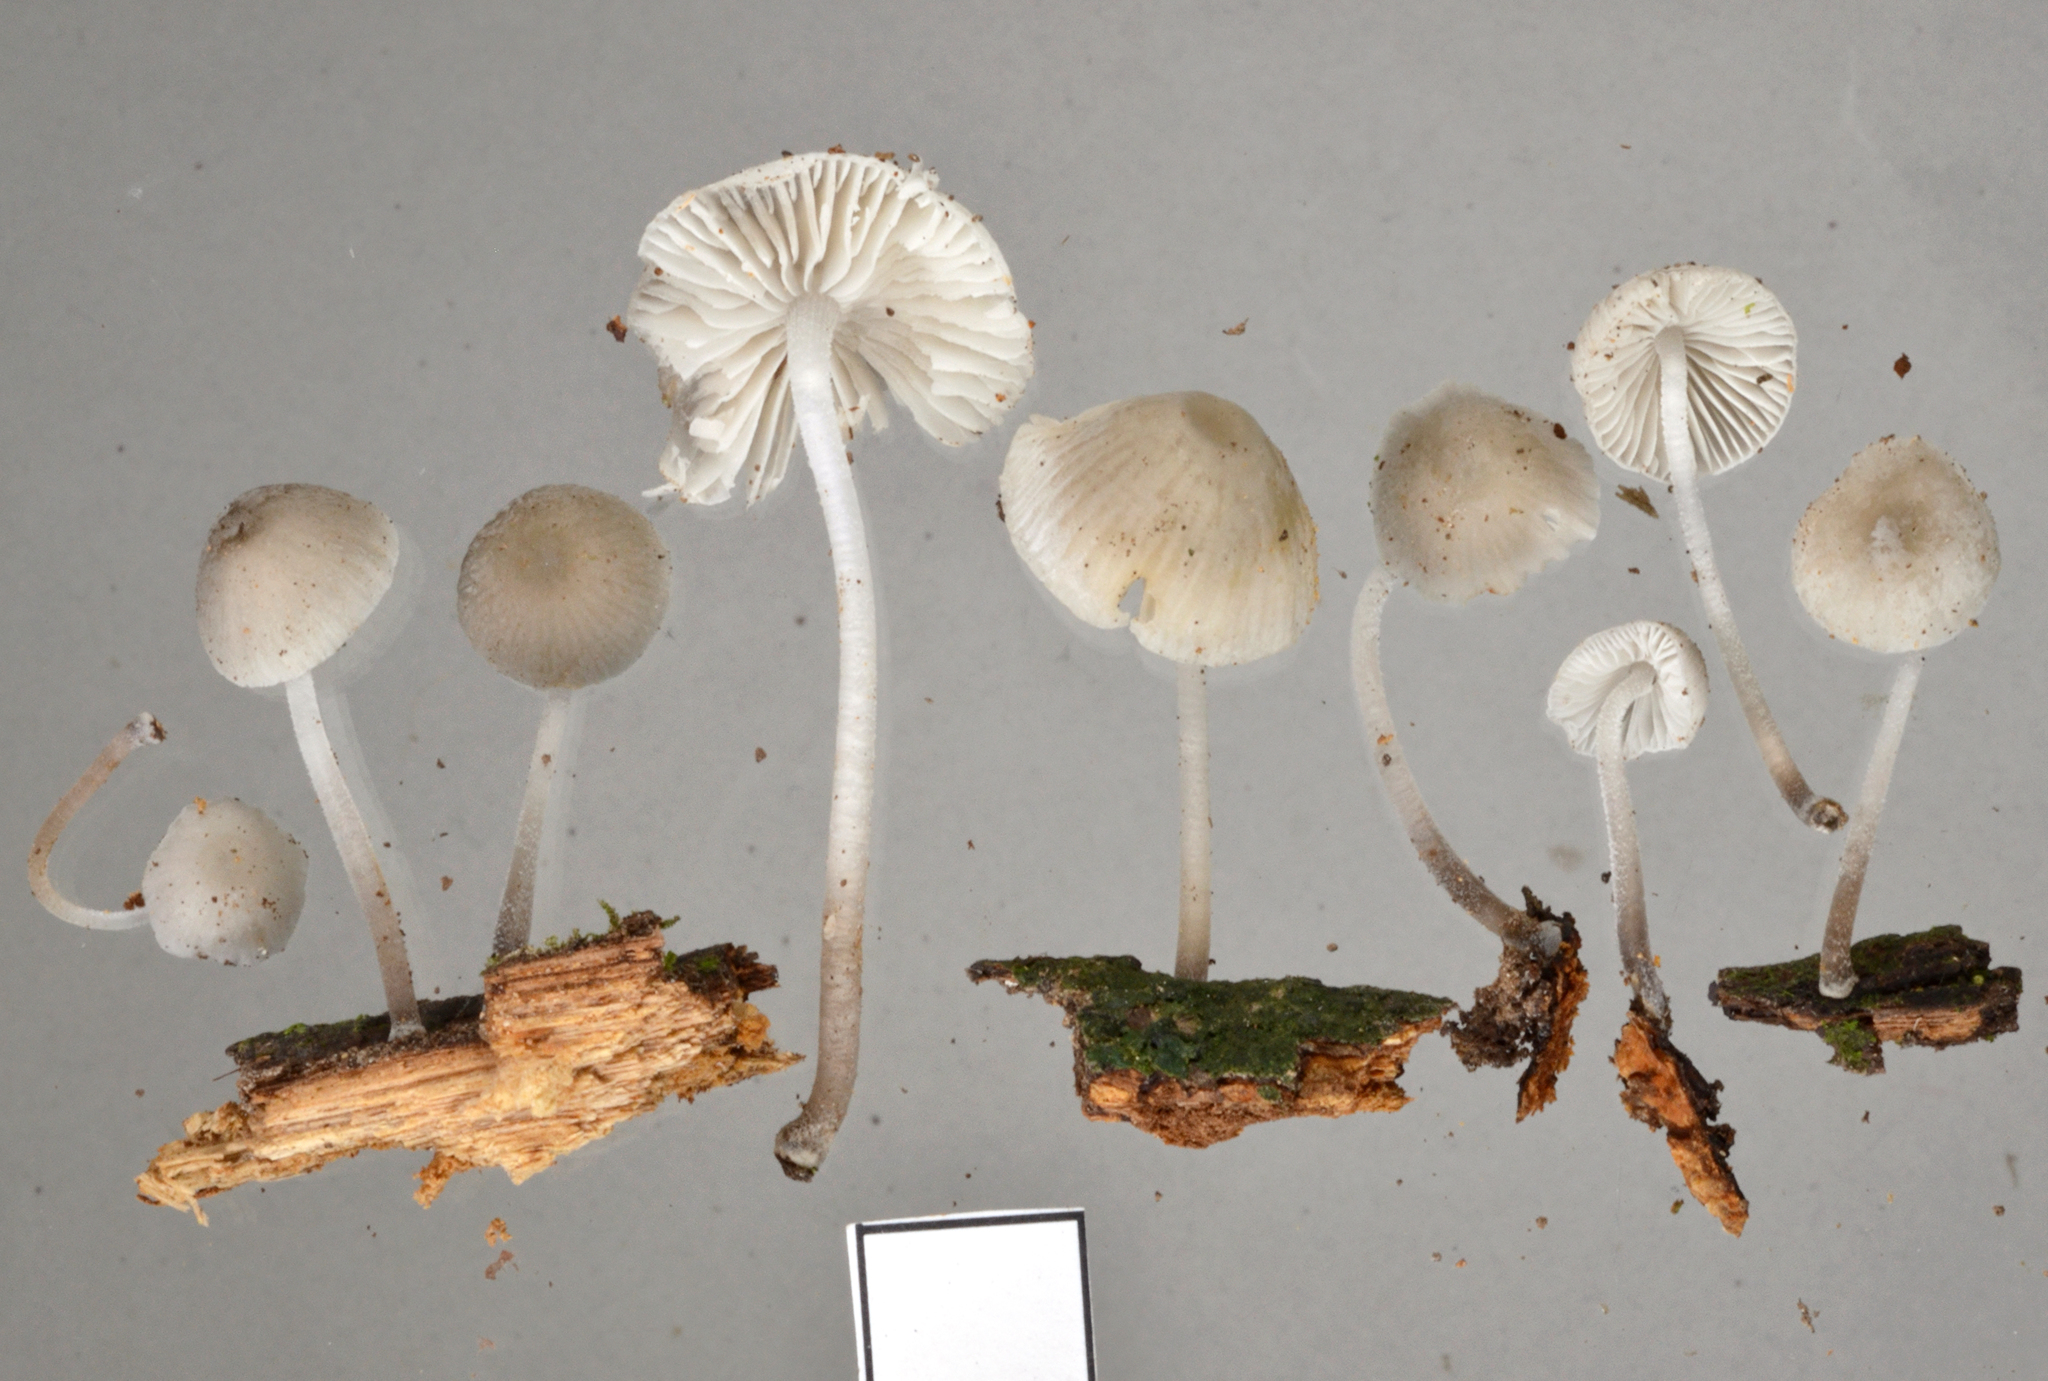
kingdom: Fungi
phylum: Basidiomycota
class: Agaricomycetes
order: Agaricales
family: Mycenaceae
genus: Mycena
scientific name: Mycena
